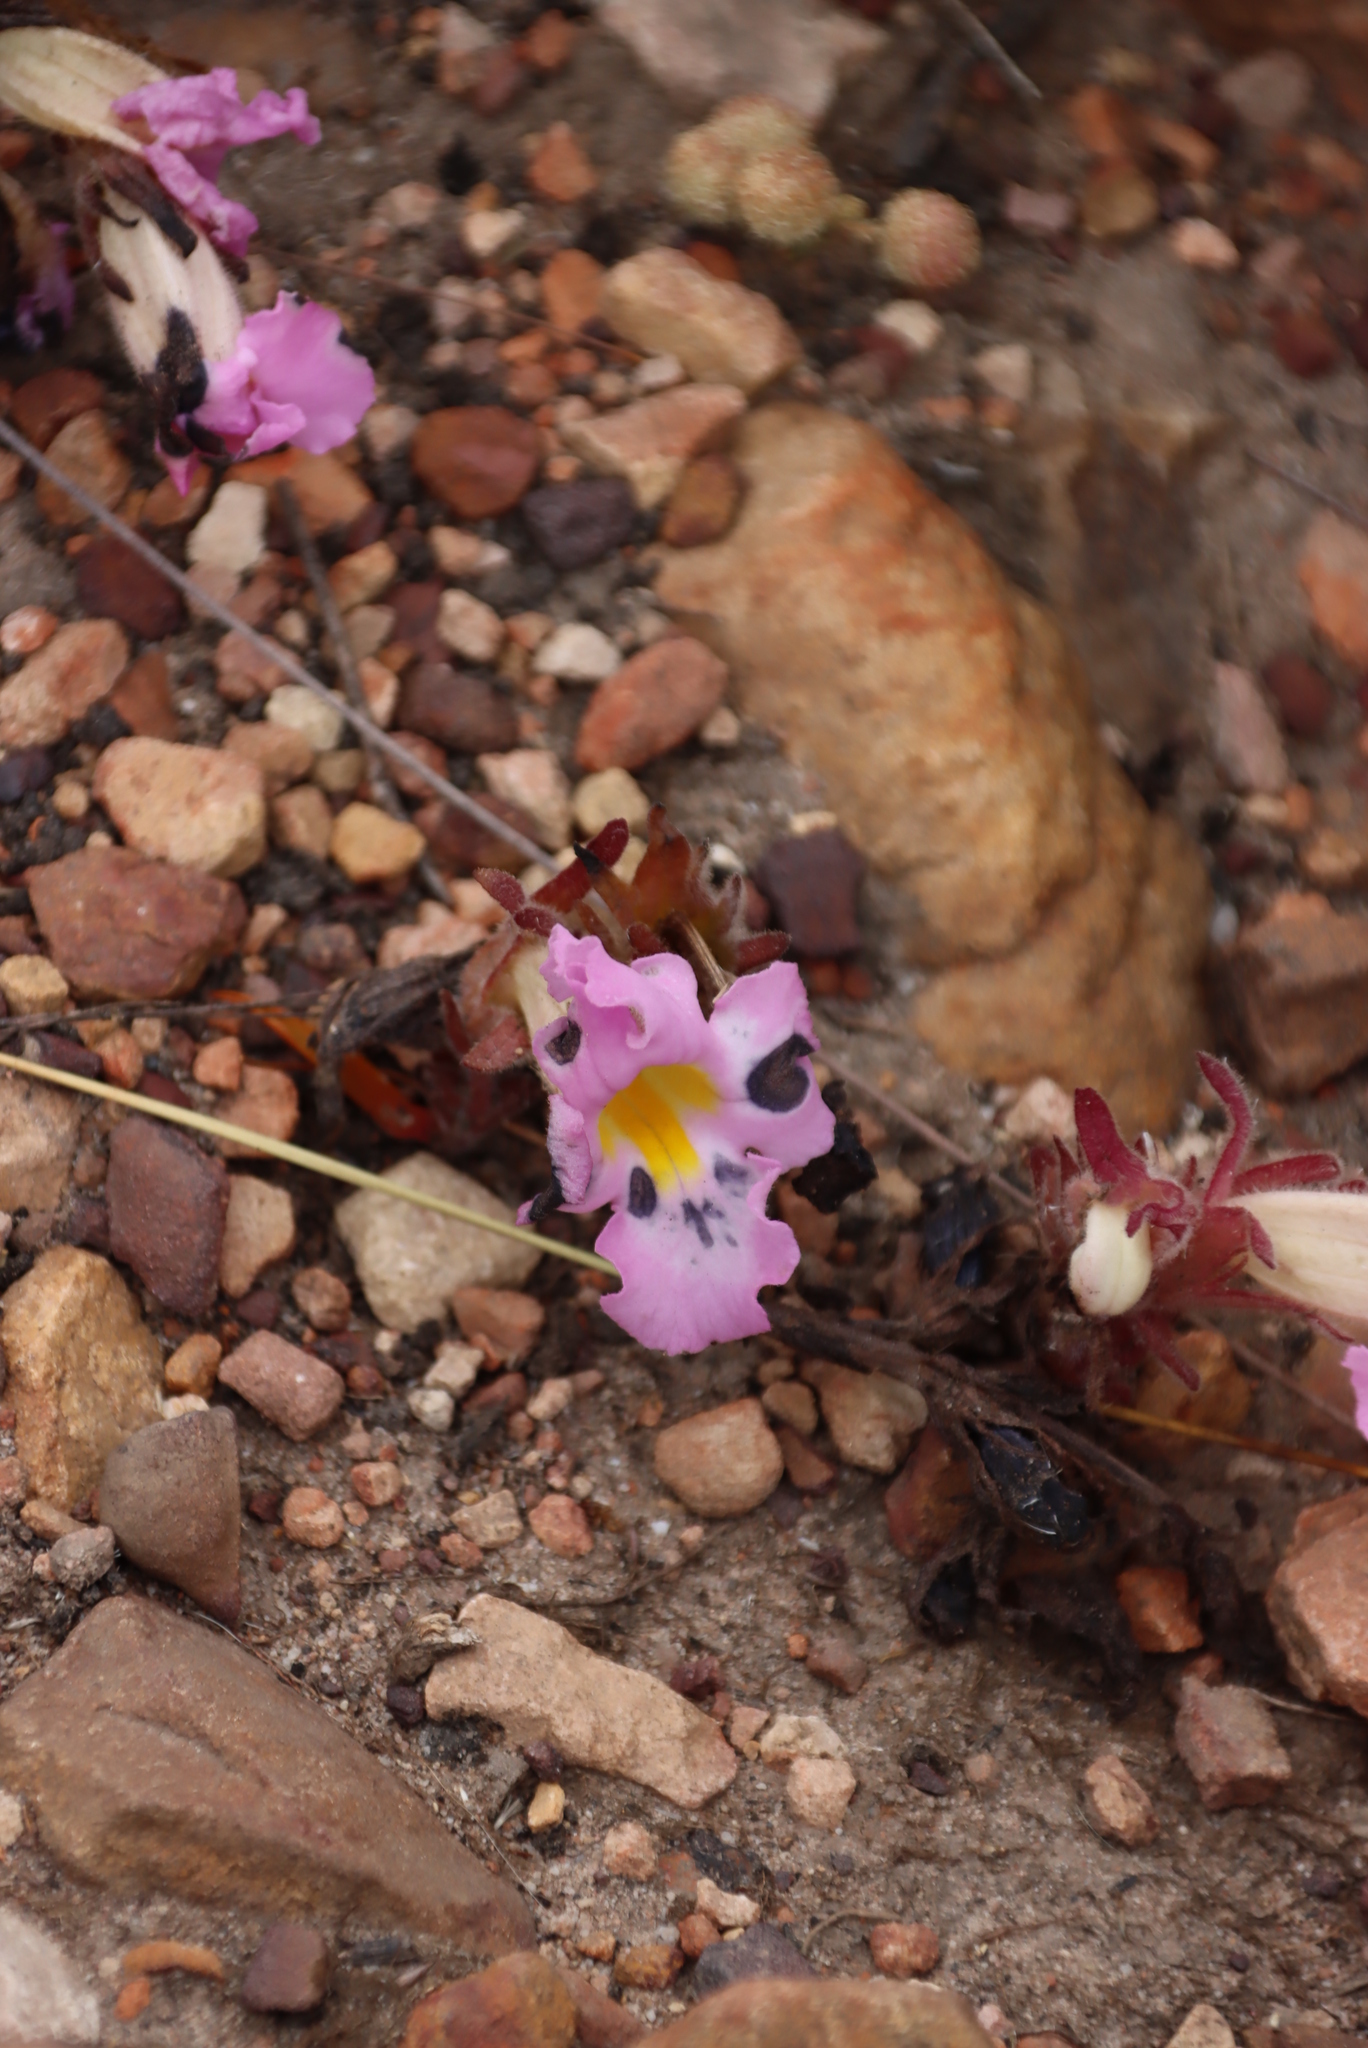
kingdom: Plantae
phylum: Tracheophyta
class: Magnoliopsida
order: Lamiales
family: Orobanchaceae
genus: Harveya
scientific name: Harveya purpurea
